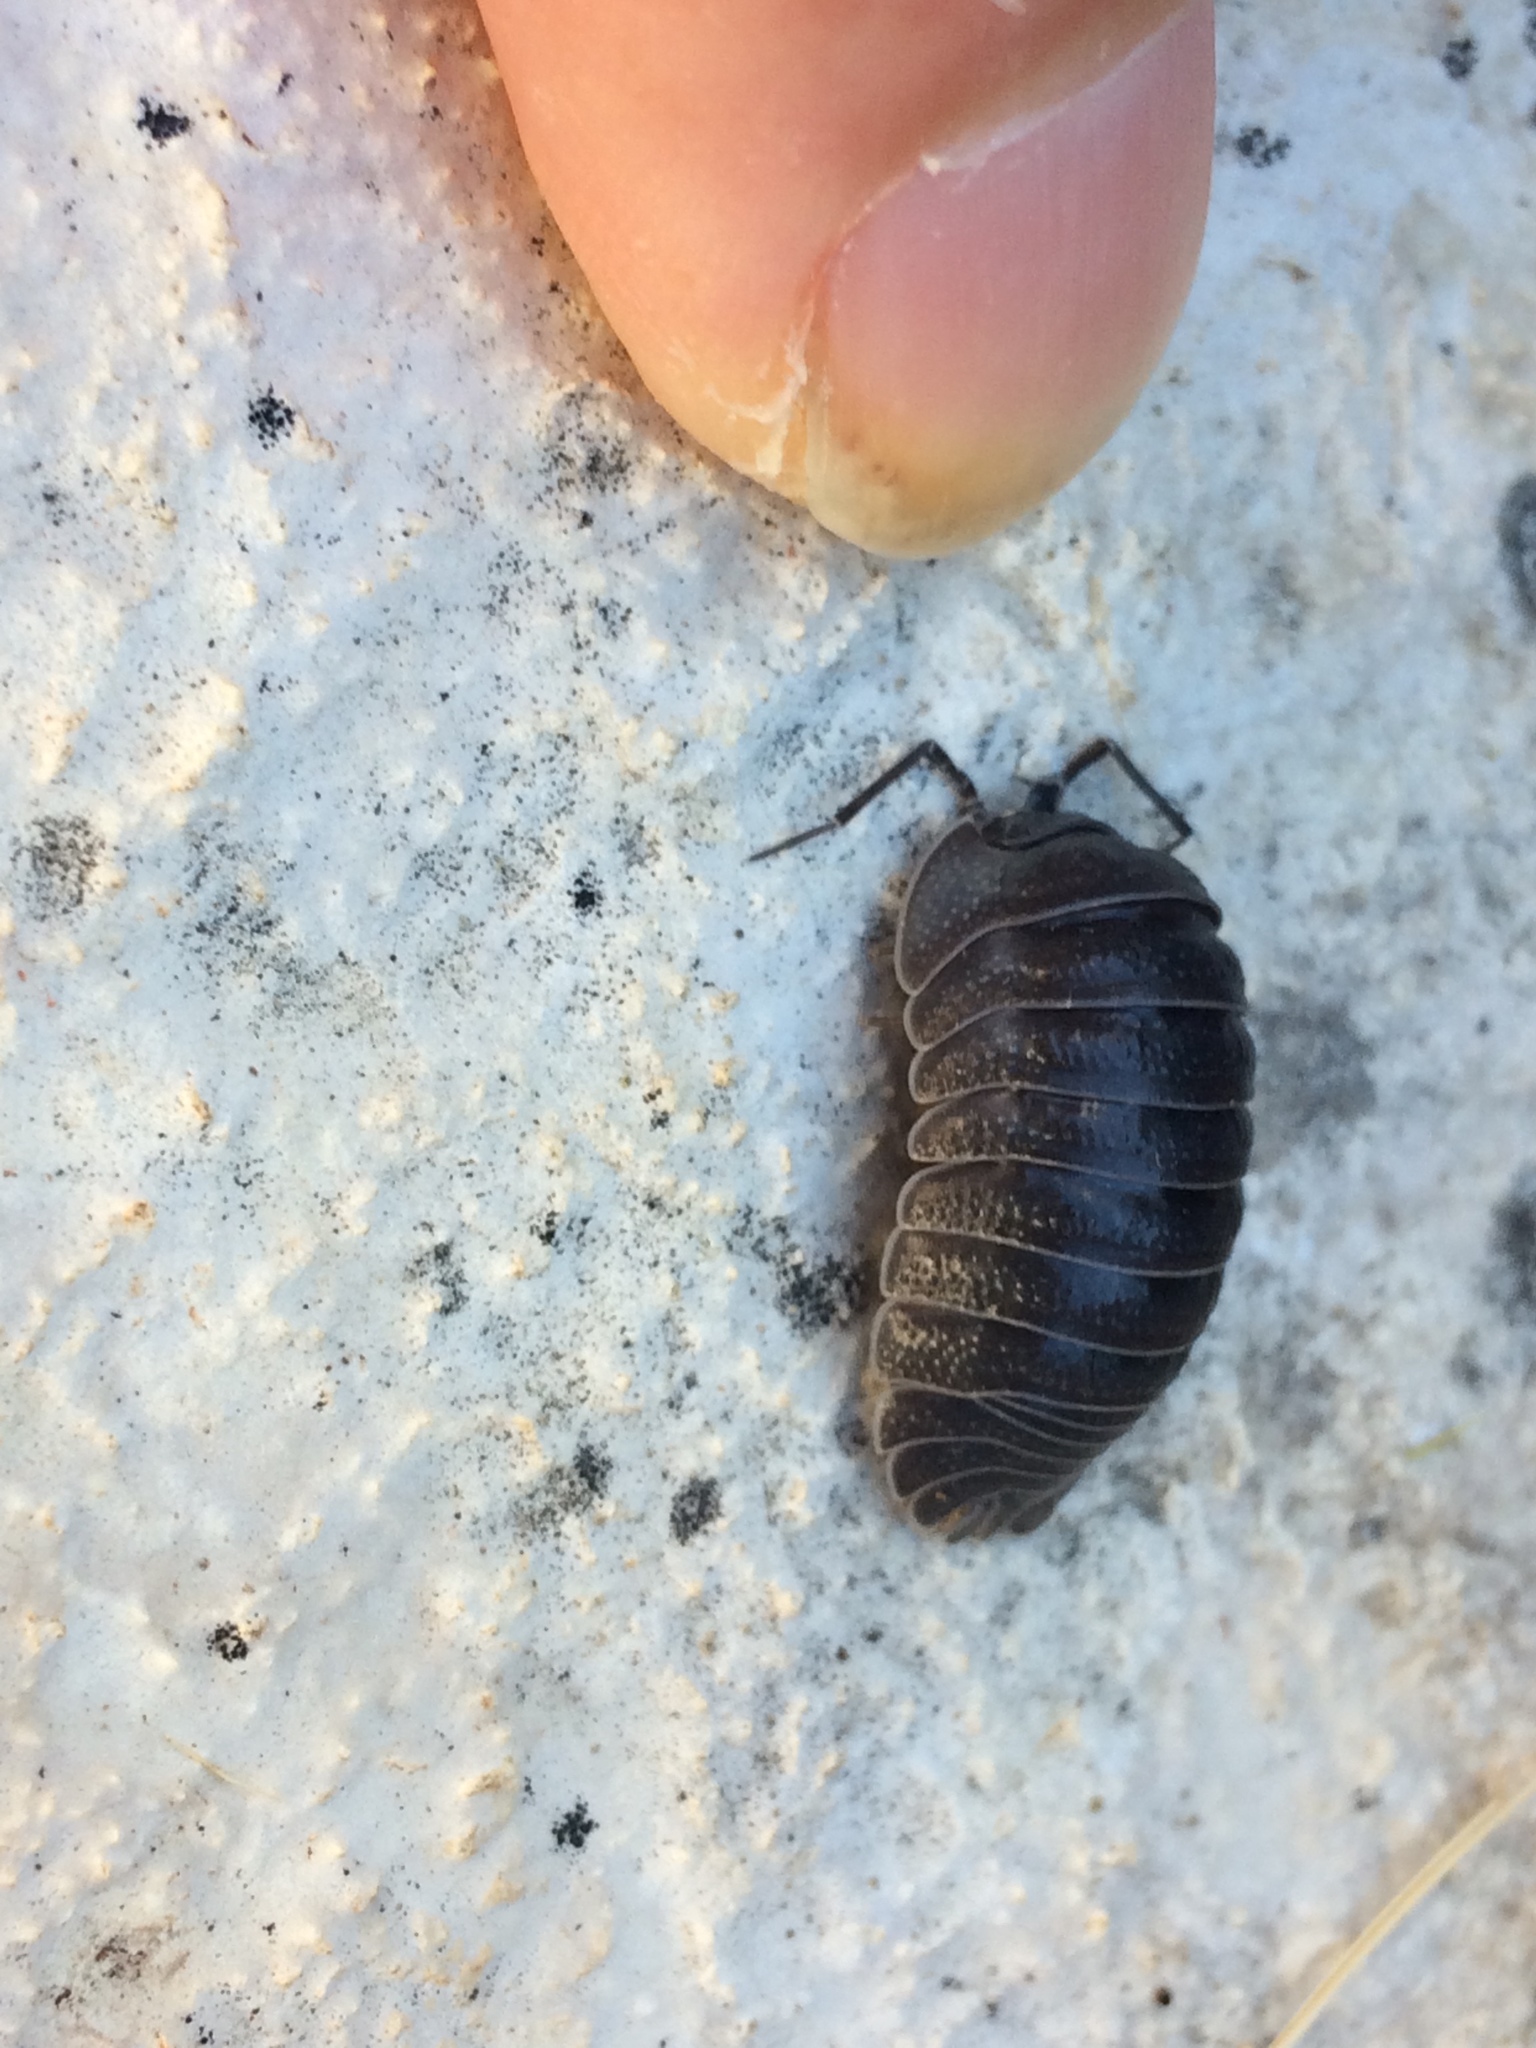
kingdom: Animalia
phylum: Arthropoda
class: Malacostraca
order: Isopoda
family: Armadillidiidae
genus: Armadillidium
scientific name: Armadillidium pallasii
